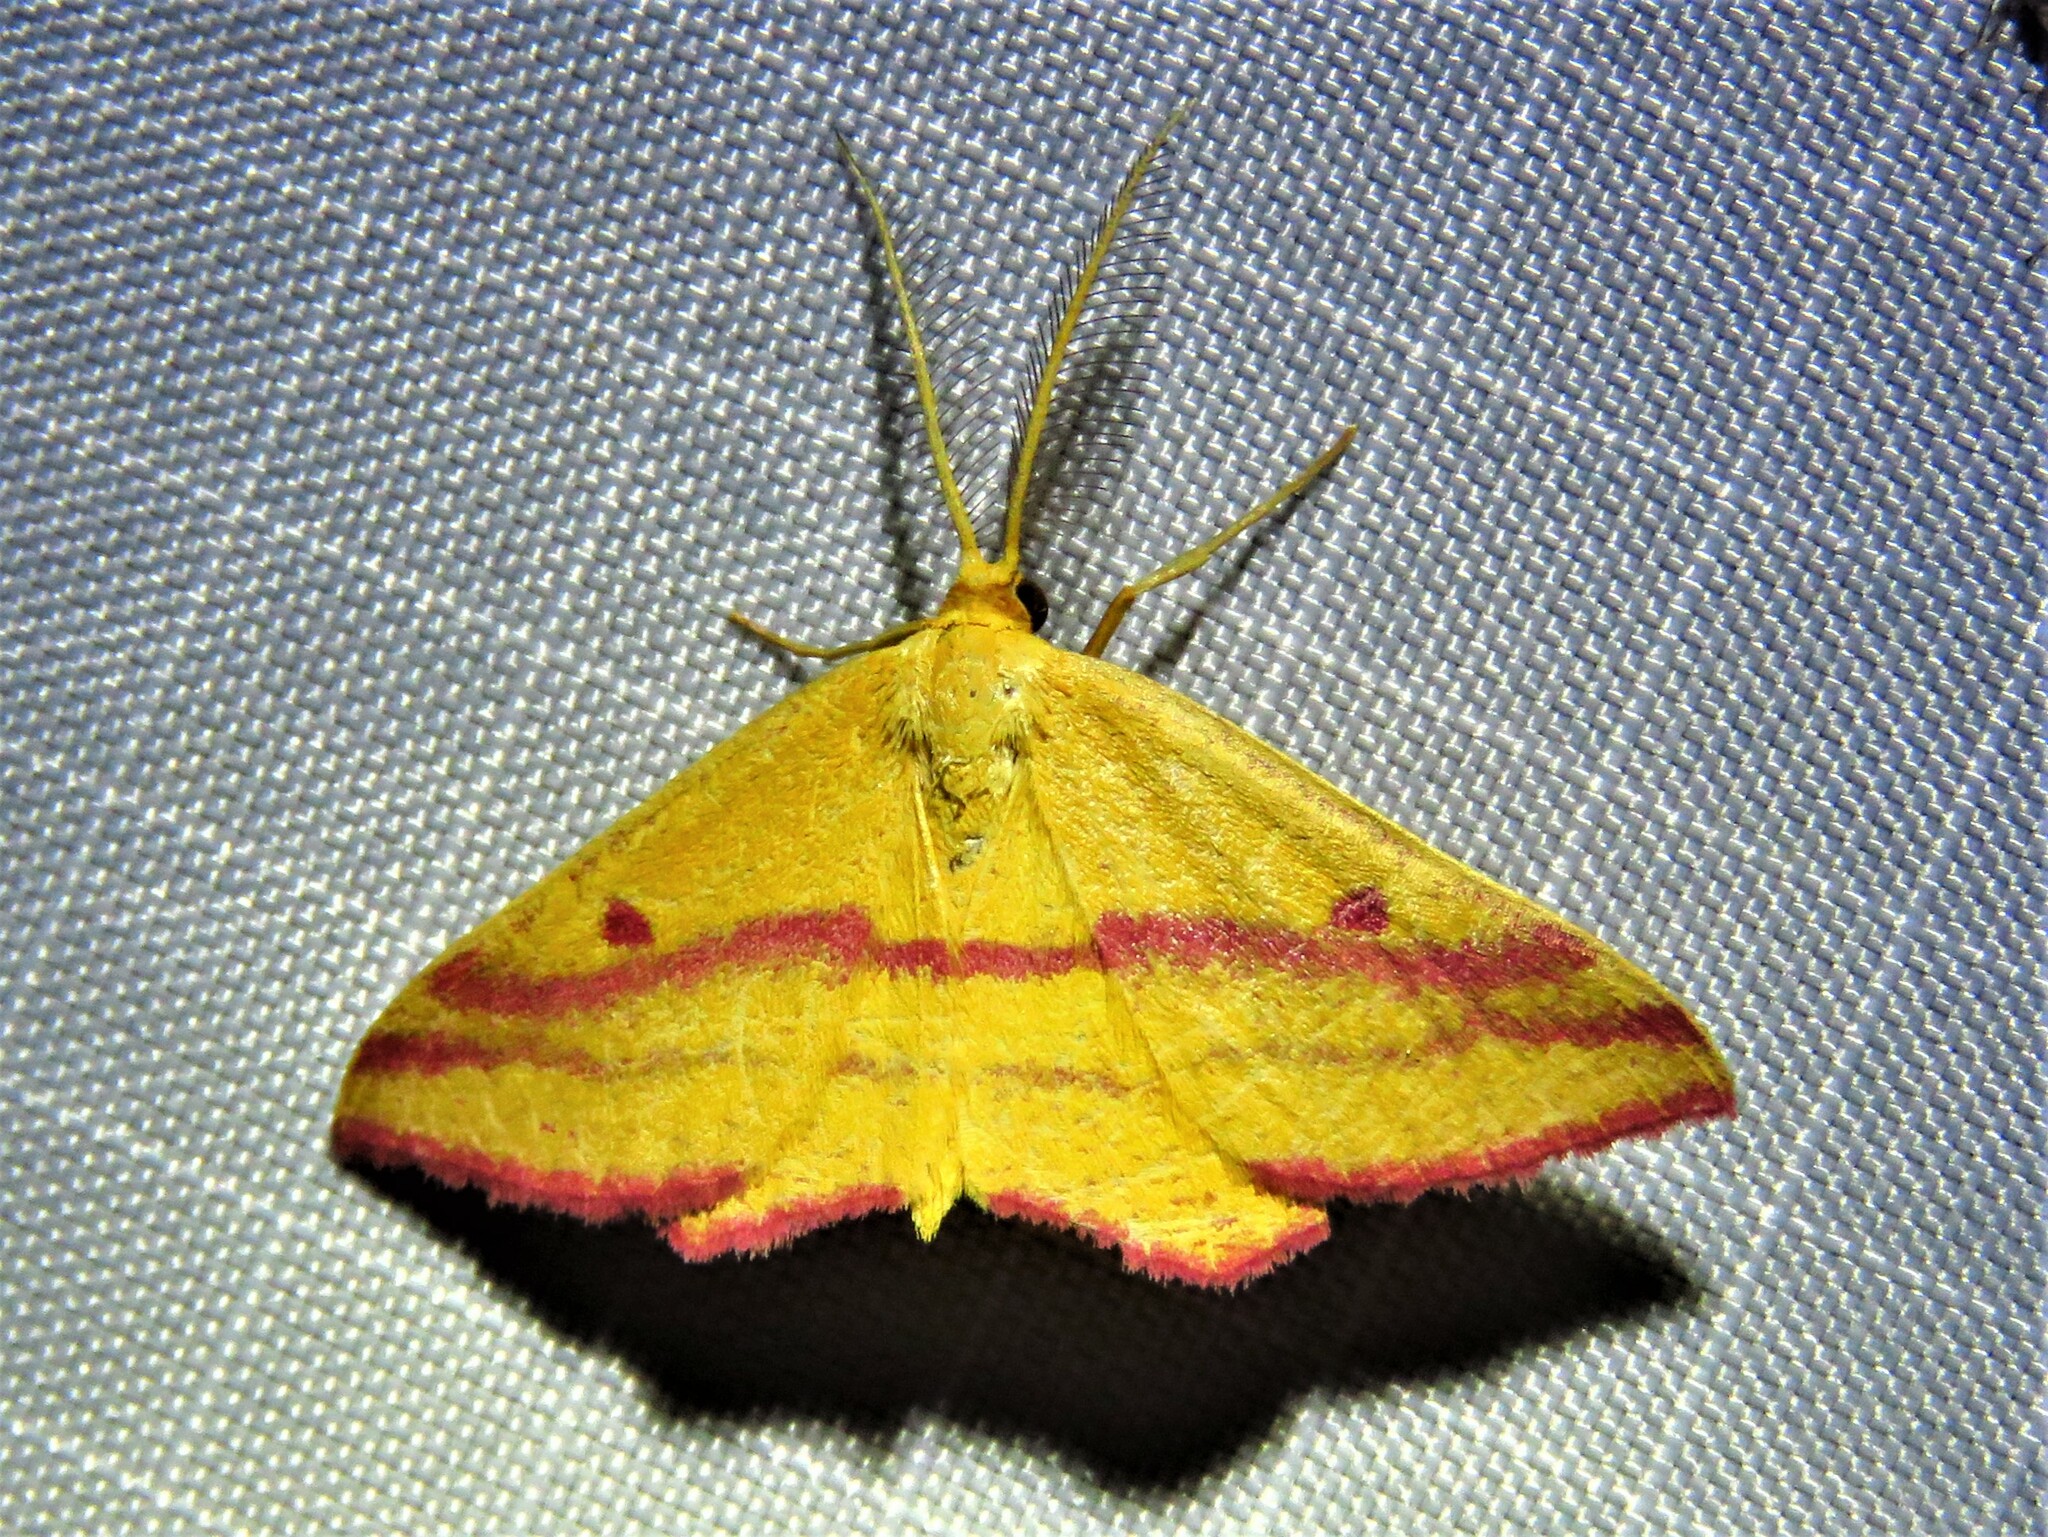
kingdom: Animalia
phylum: Arthropoda
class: Insecta
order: Lepidoptera
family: Geometridae
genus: Haematopis
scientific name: Haematopis grataria
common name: Chickweed geometer
